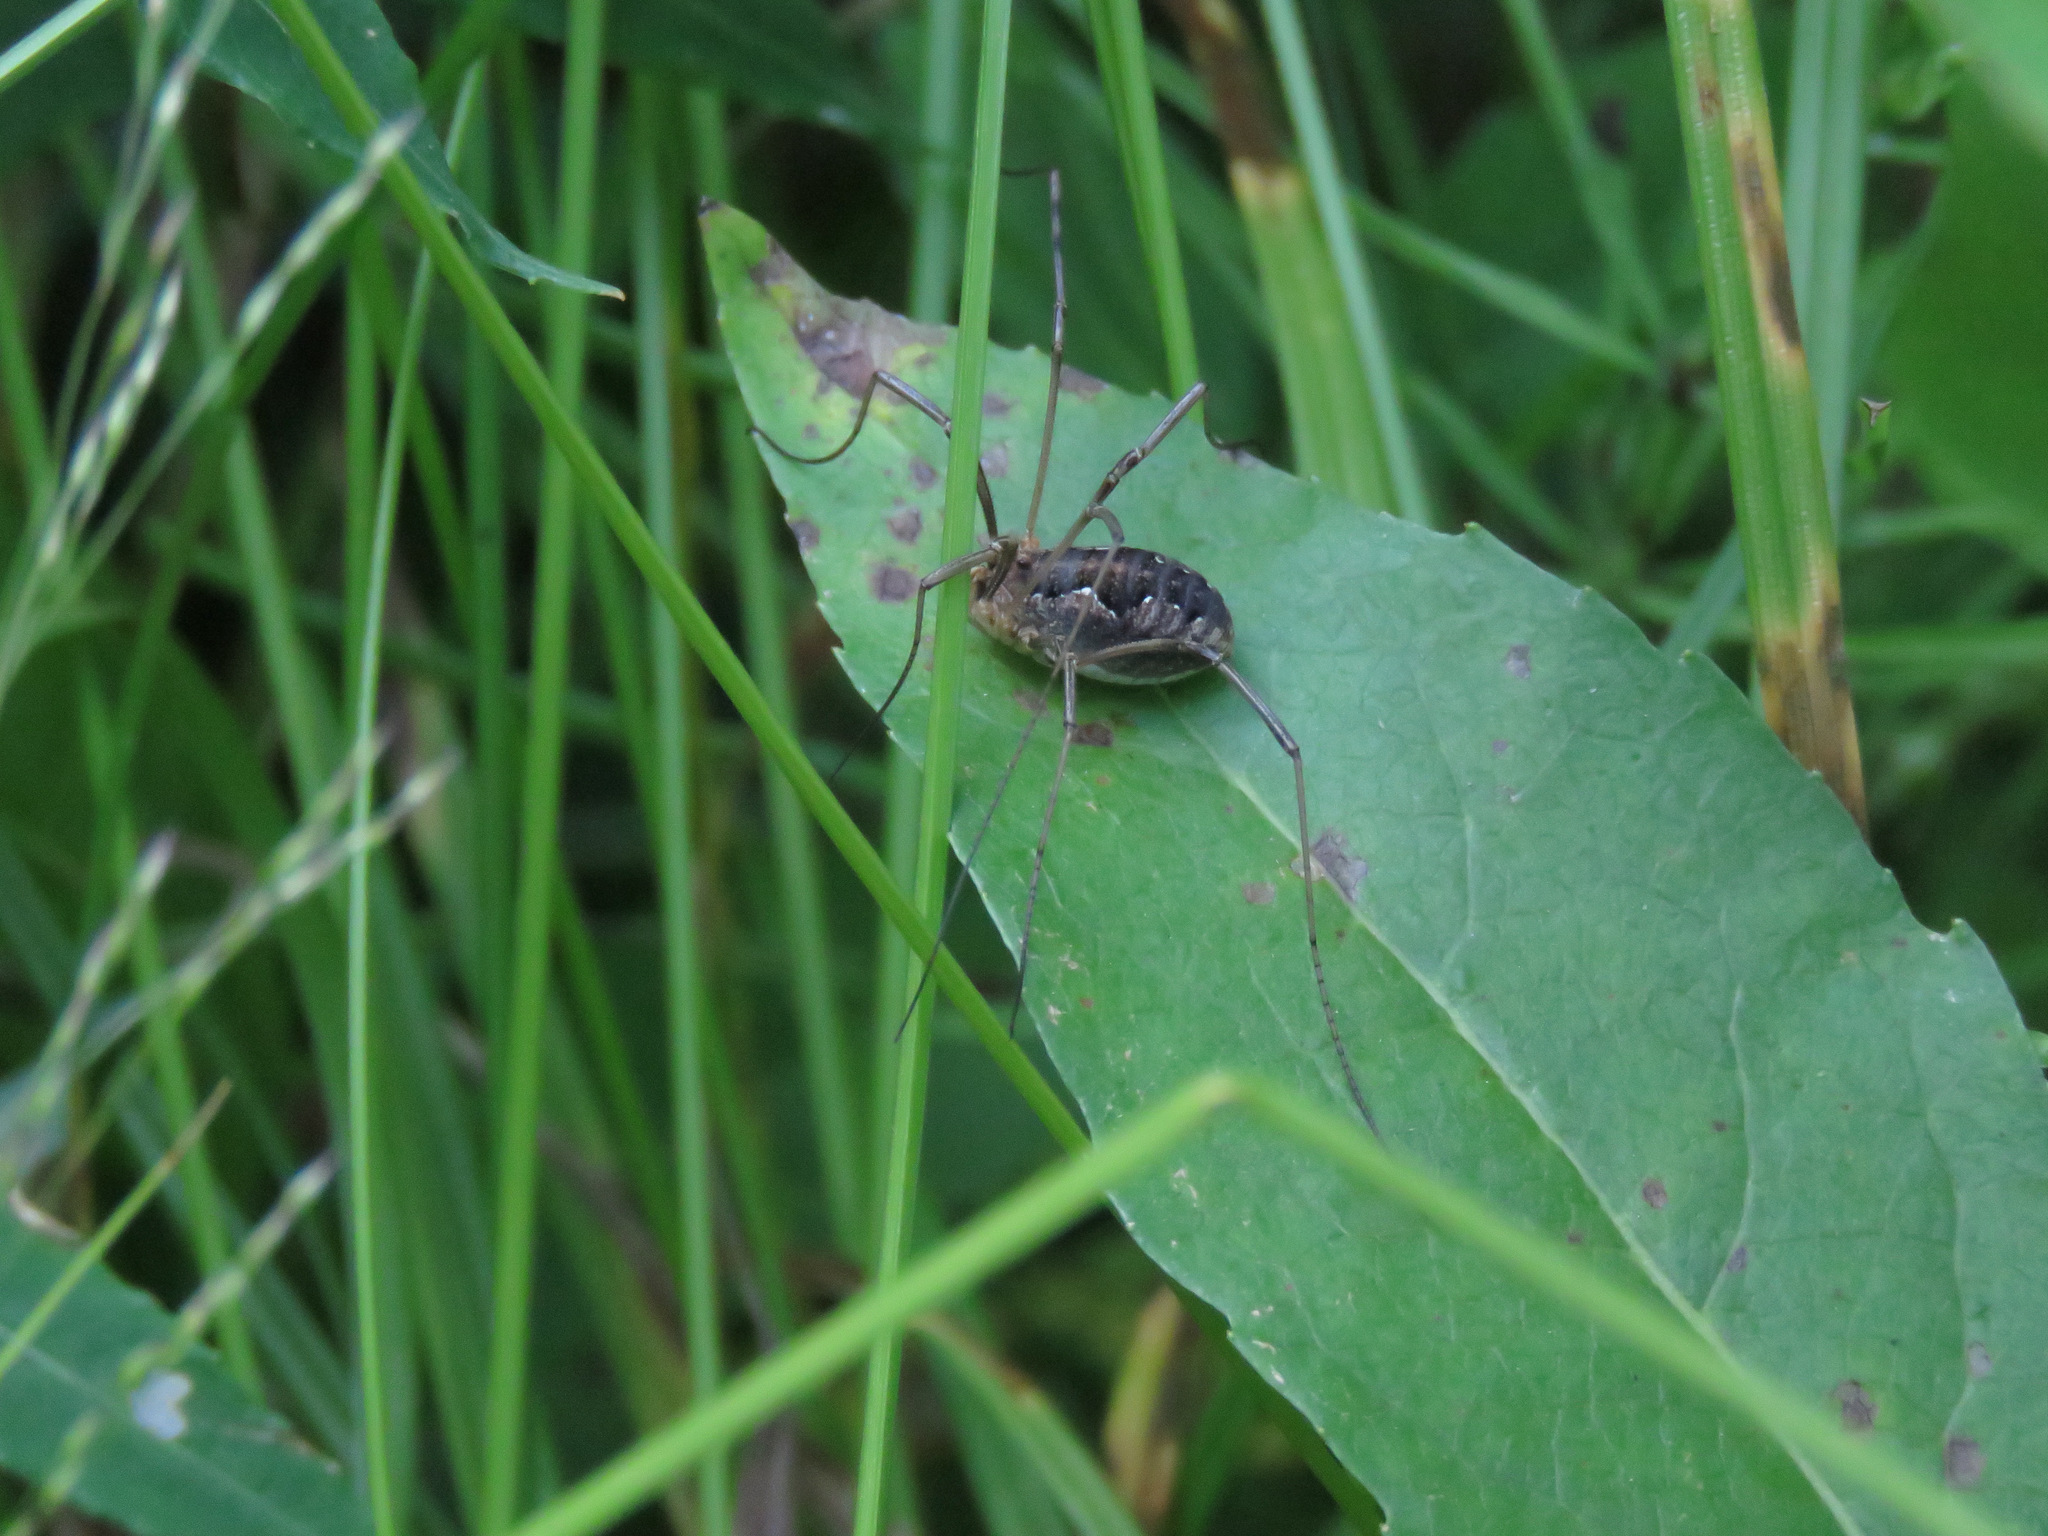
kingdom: Animalia
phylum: Arthropoda
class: Arachnida
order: Opiliones
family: Phalangiidae
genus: Phalangium
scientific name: Phalangium opilio
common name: Daddy longleg
